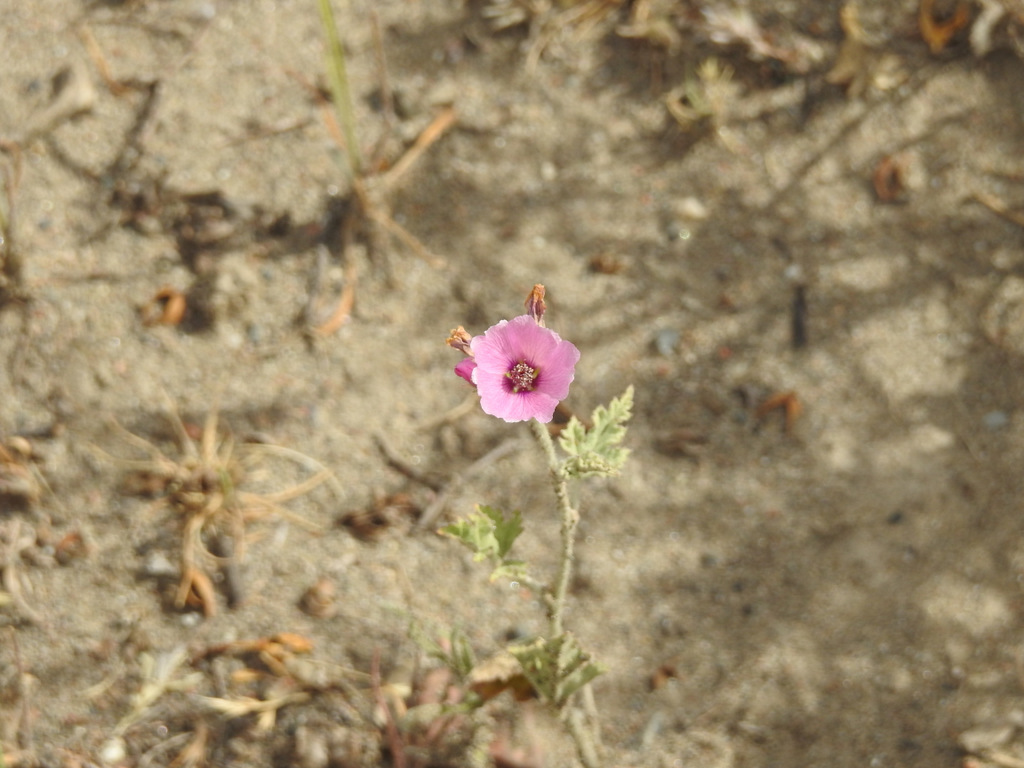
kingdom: Plantae
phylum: Tracheophyta
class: Magnoliopsida
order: Malvales
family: Malvaceae
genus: Sphaeralcea
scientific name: Sphaeralcea mendocina
